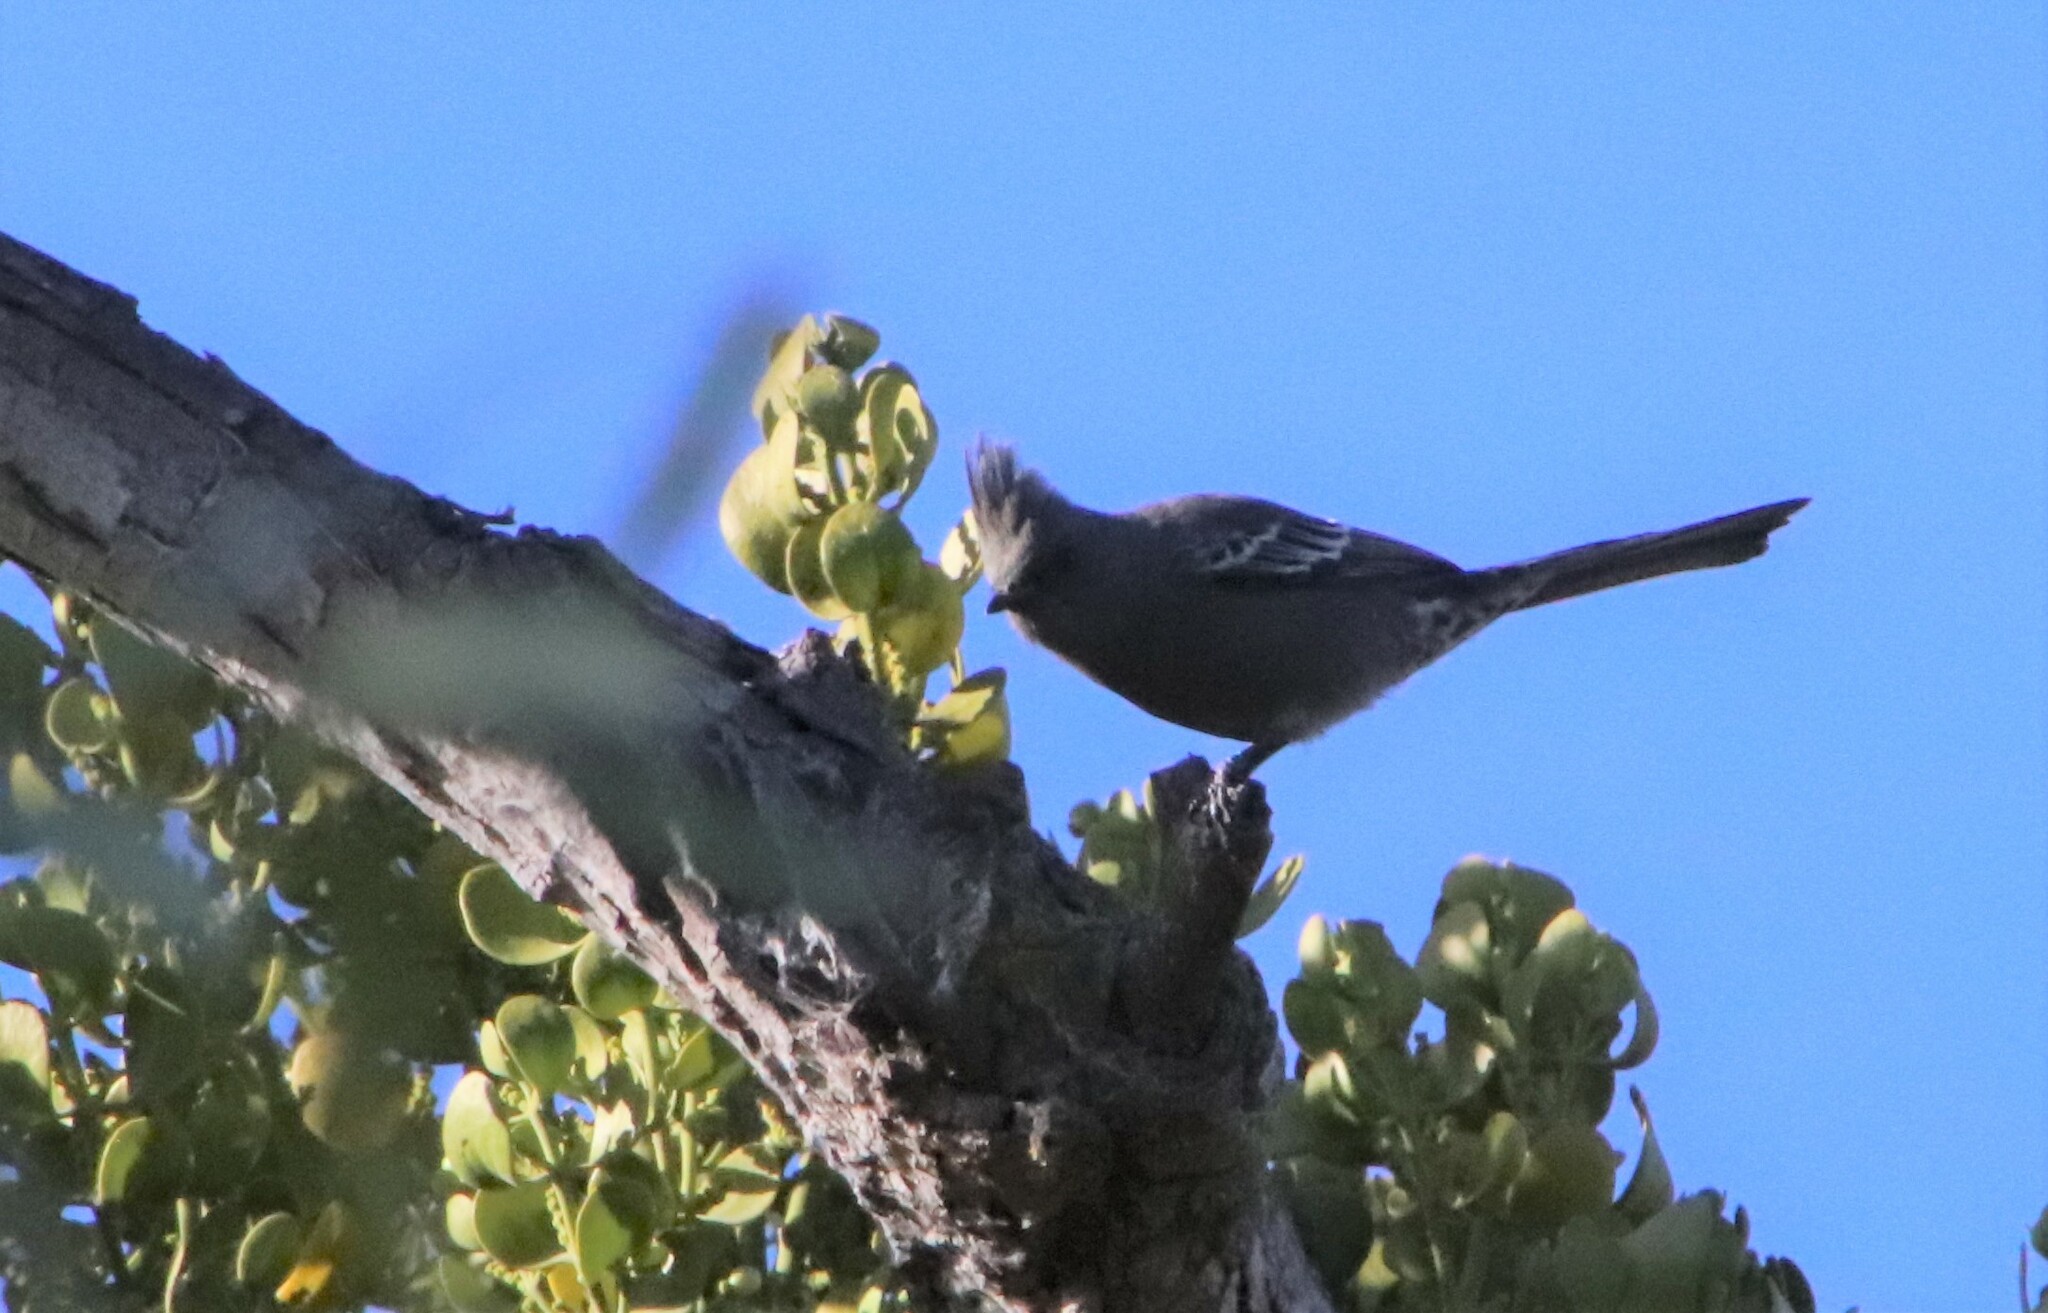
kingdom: Animalia
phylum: Chordata
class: Aves
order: Passeriformes
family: Ptilogonatidae
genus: Phainopepla
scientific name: Phainopepla nitens
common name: Phainopepla
